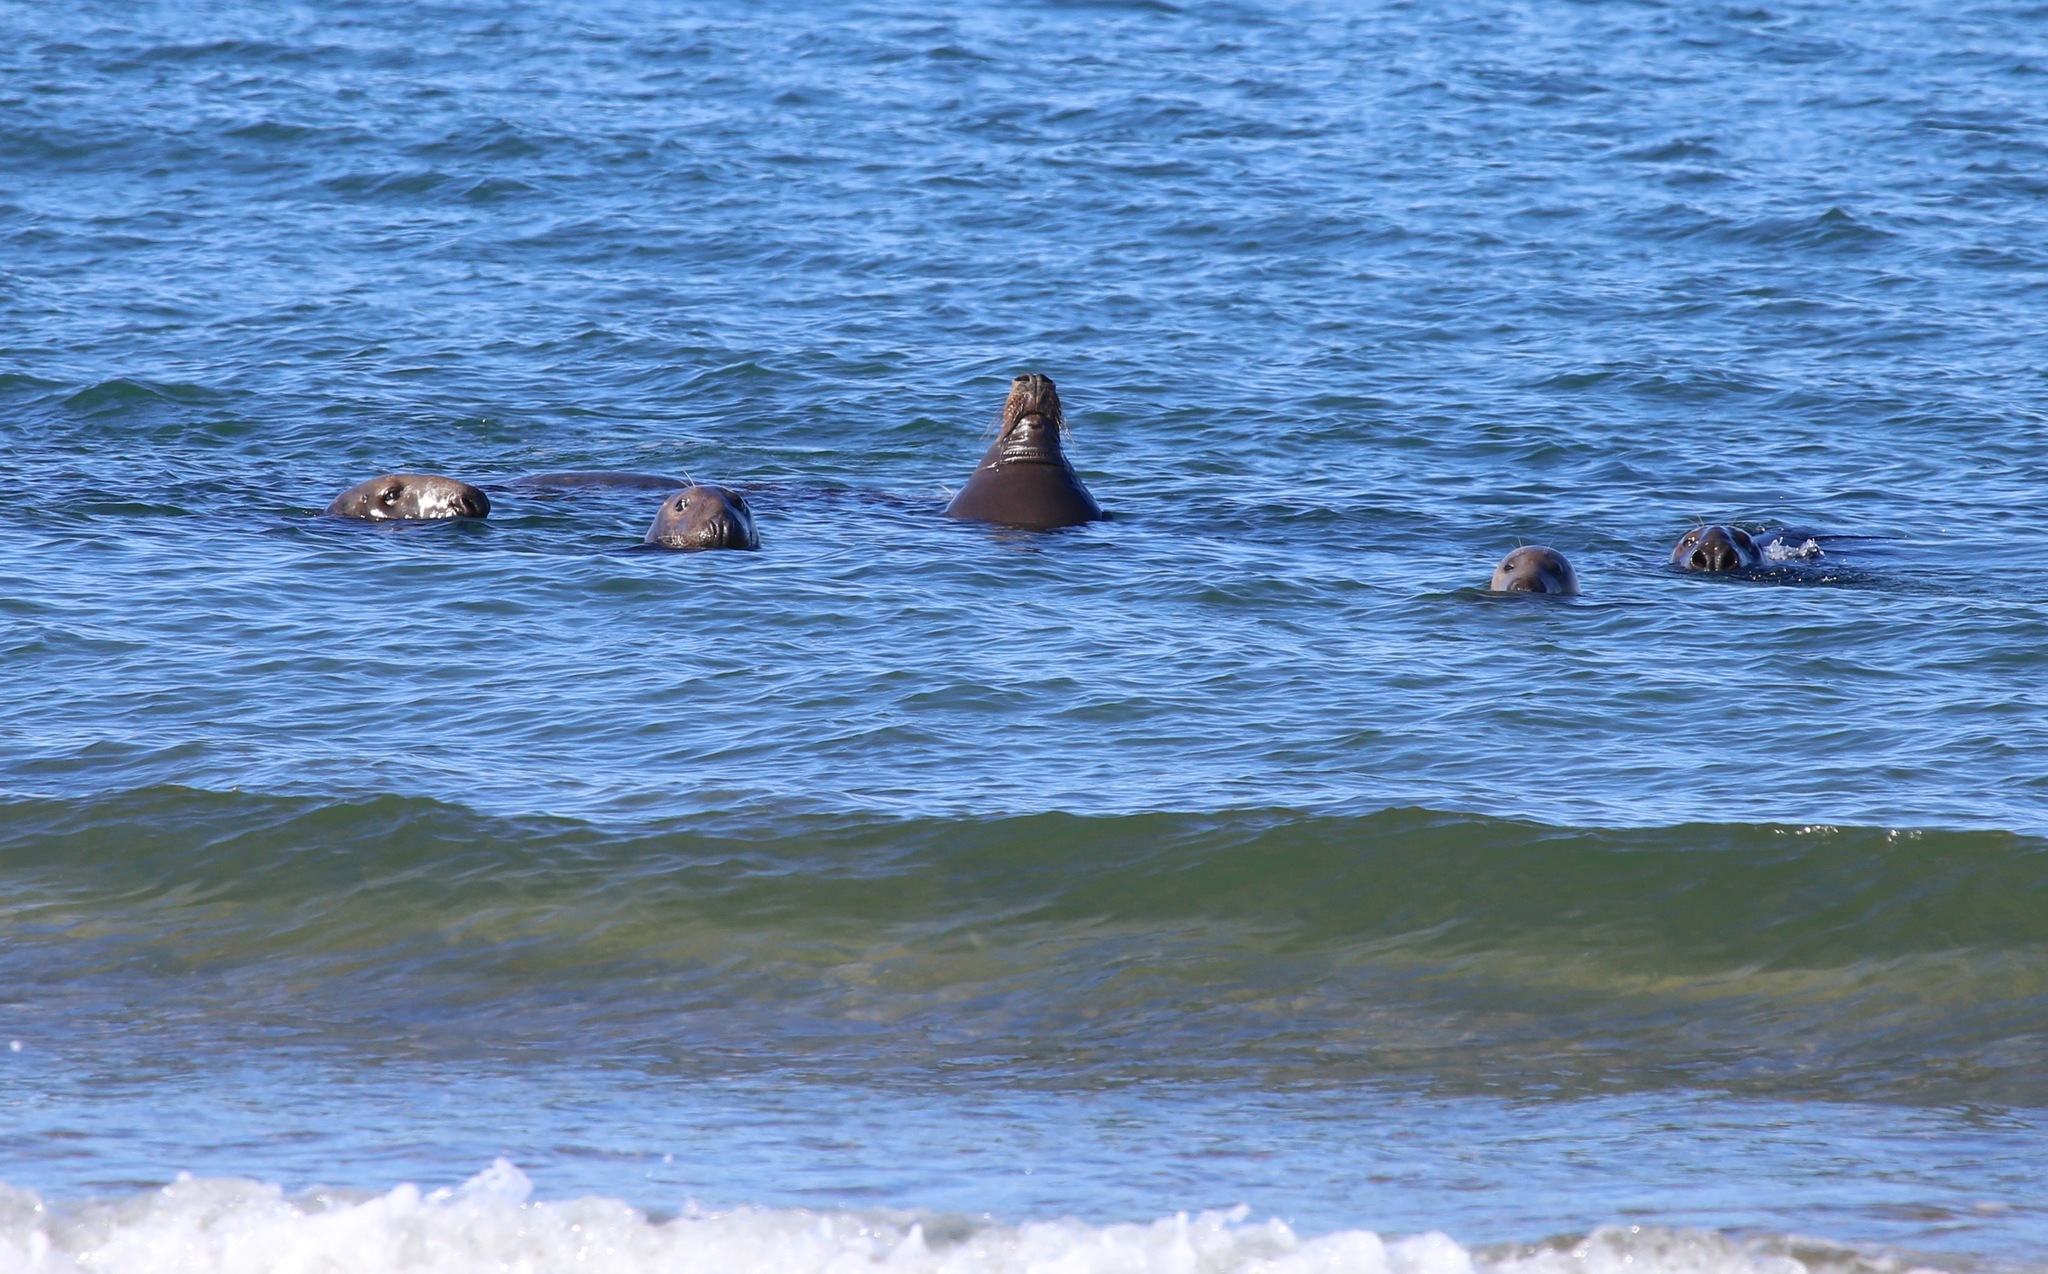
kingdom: Animalia
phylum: Chordata
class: Mammalia
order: Carnivora
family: Phocidae
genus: Halichoerus
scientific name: Halichoerus grypus
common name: Grey seal
